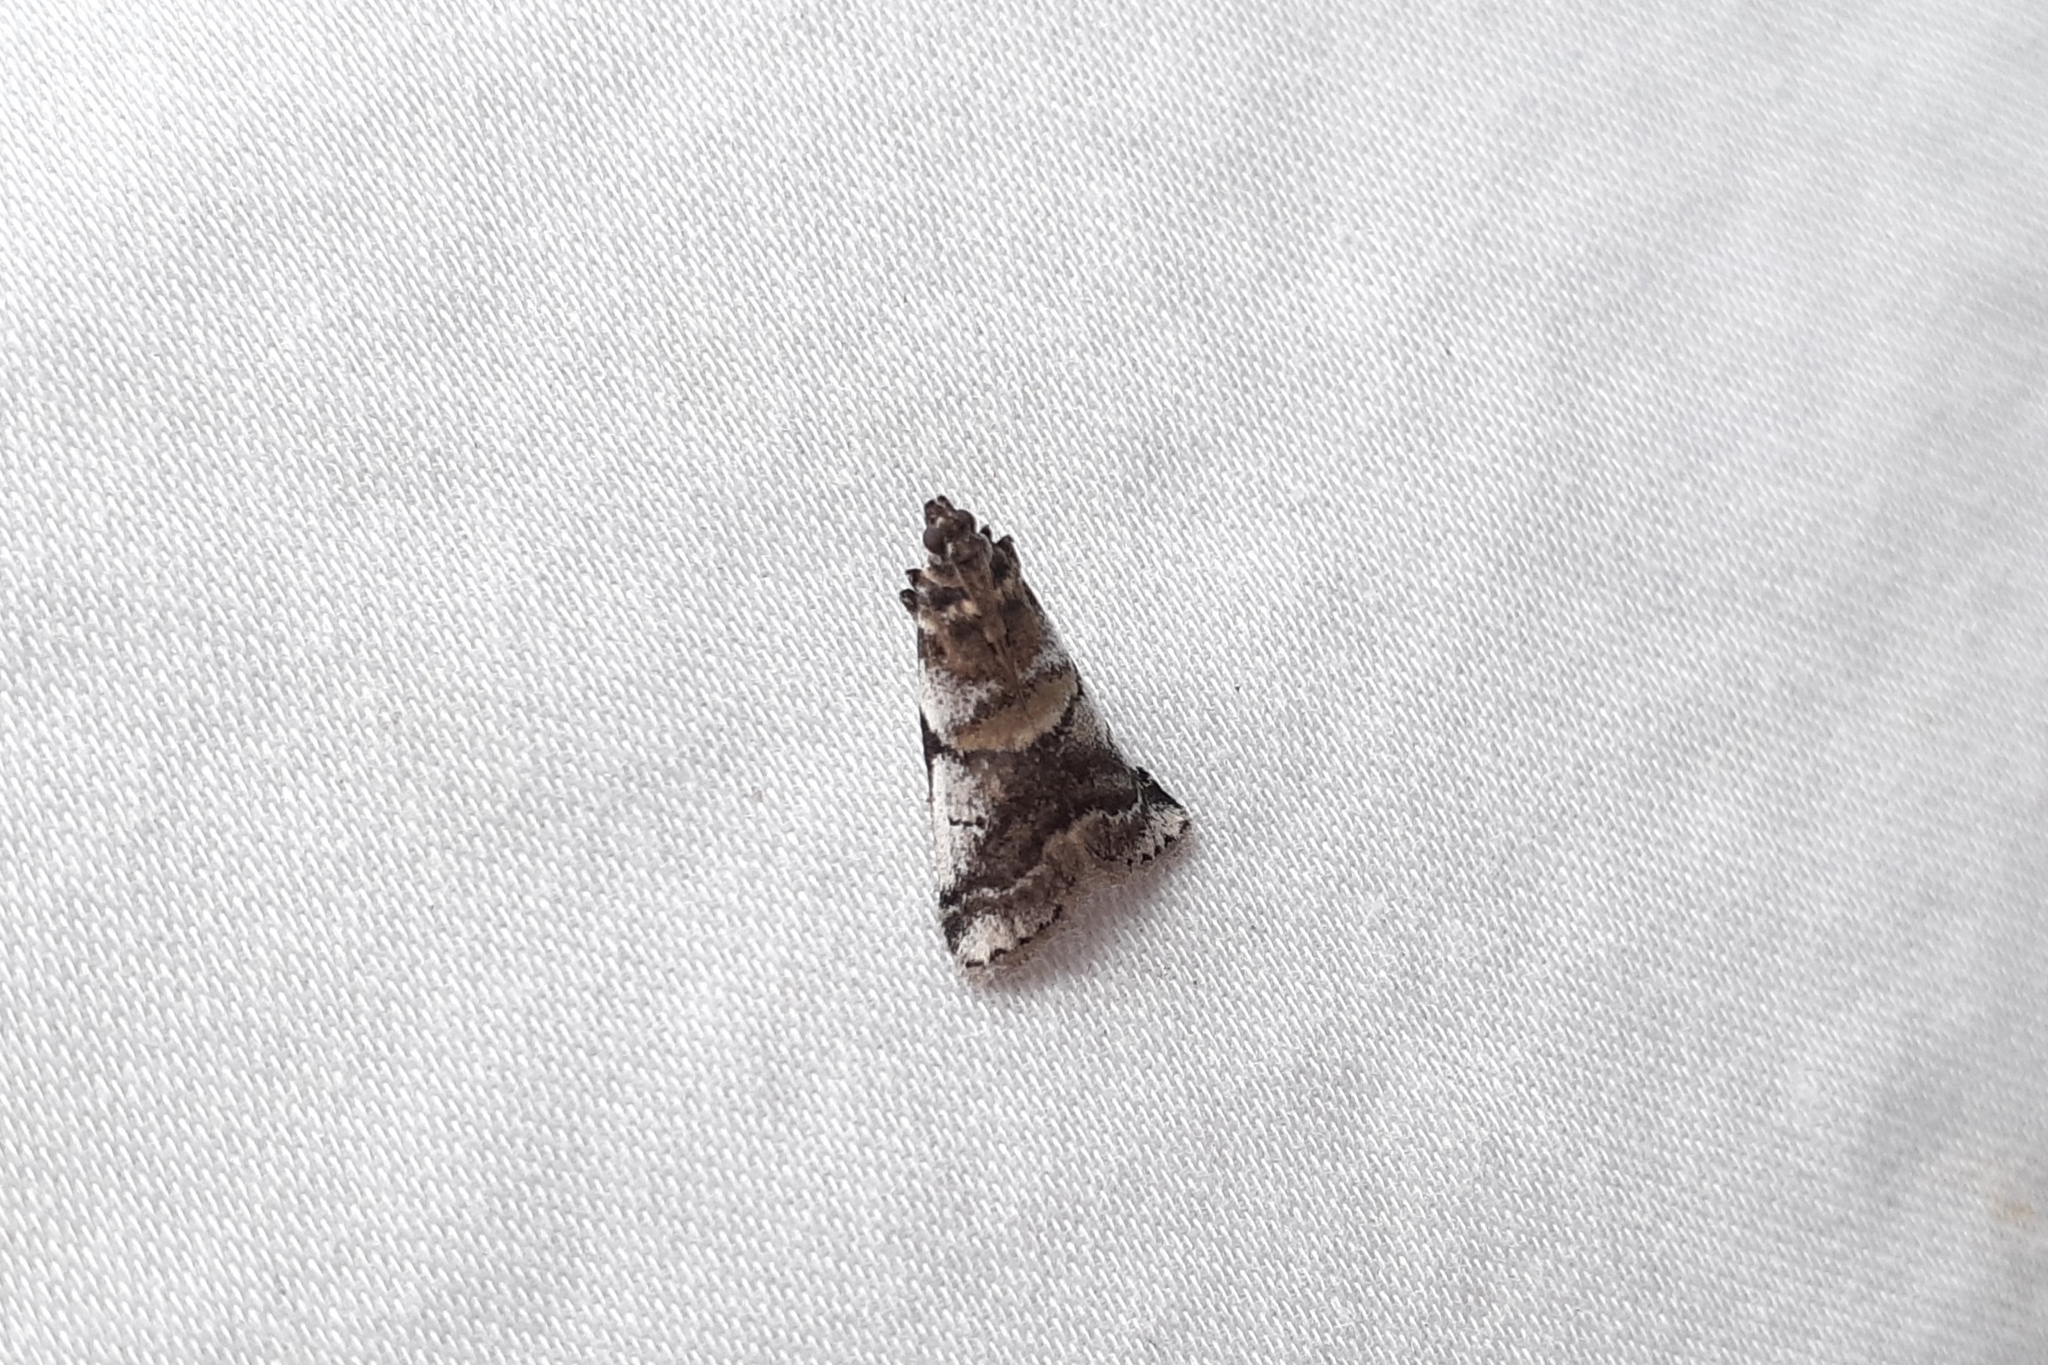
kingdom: Animalia
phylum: Arthropoda
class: Insecta
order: Lepidoptera
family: Pyralidae
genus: Acrobasis
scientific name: Acrobasis indigenella
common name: Leaf crumpler moth
